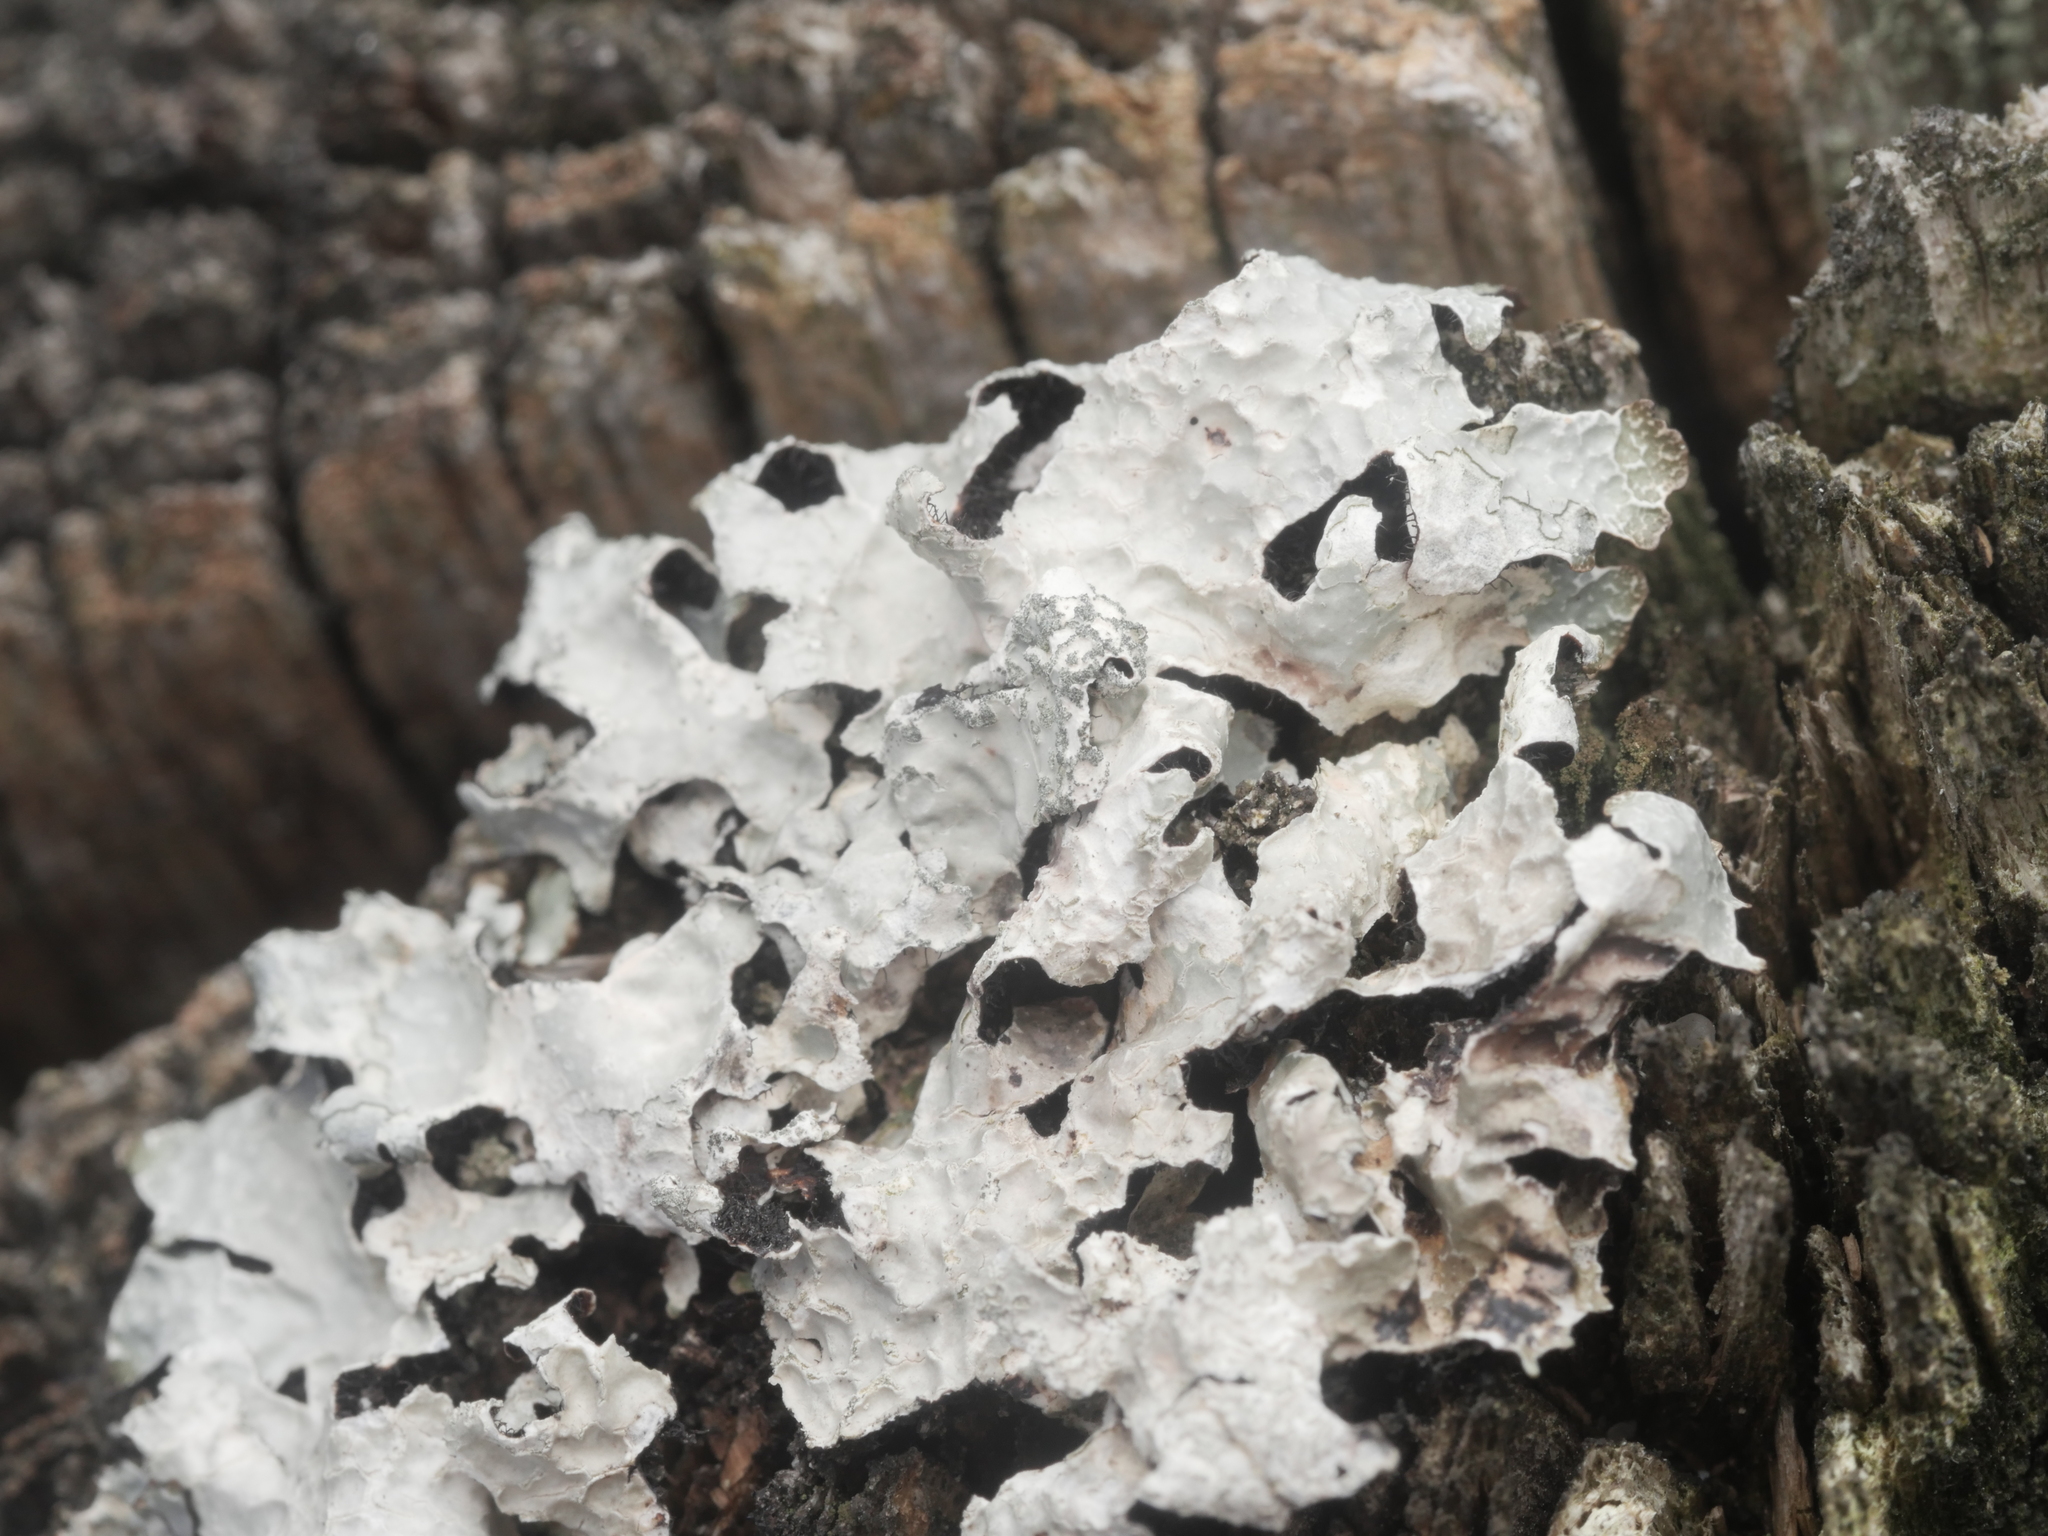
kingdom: Fungi
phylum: Ascomycota
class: Lecanoromycetes
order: Lecanorales
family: Parmeliaceae
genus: Parmelia
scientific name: Parmelia sulcata
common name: Netted shield lichen
